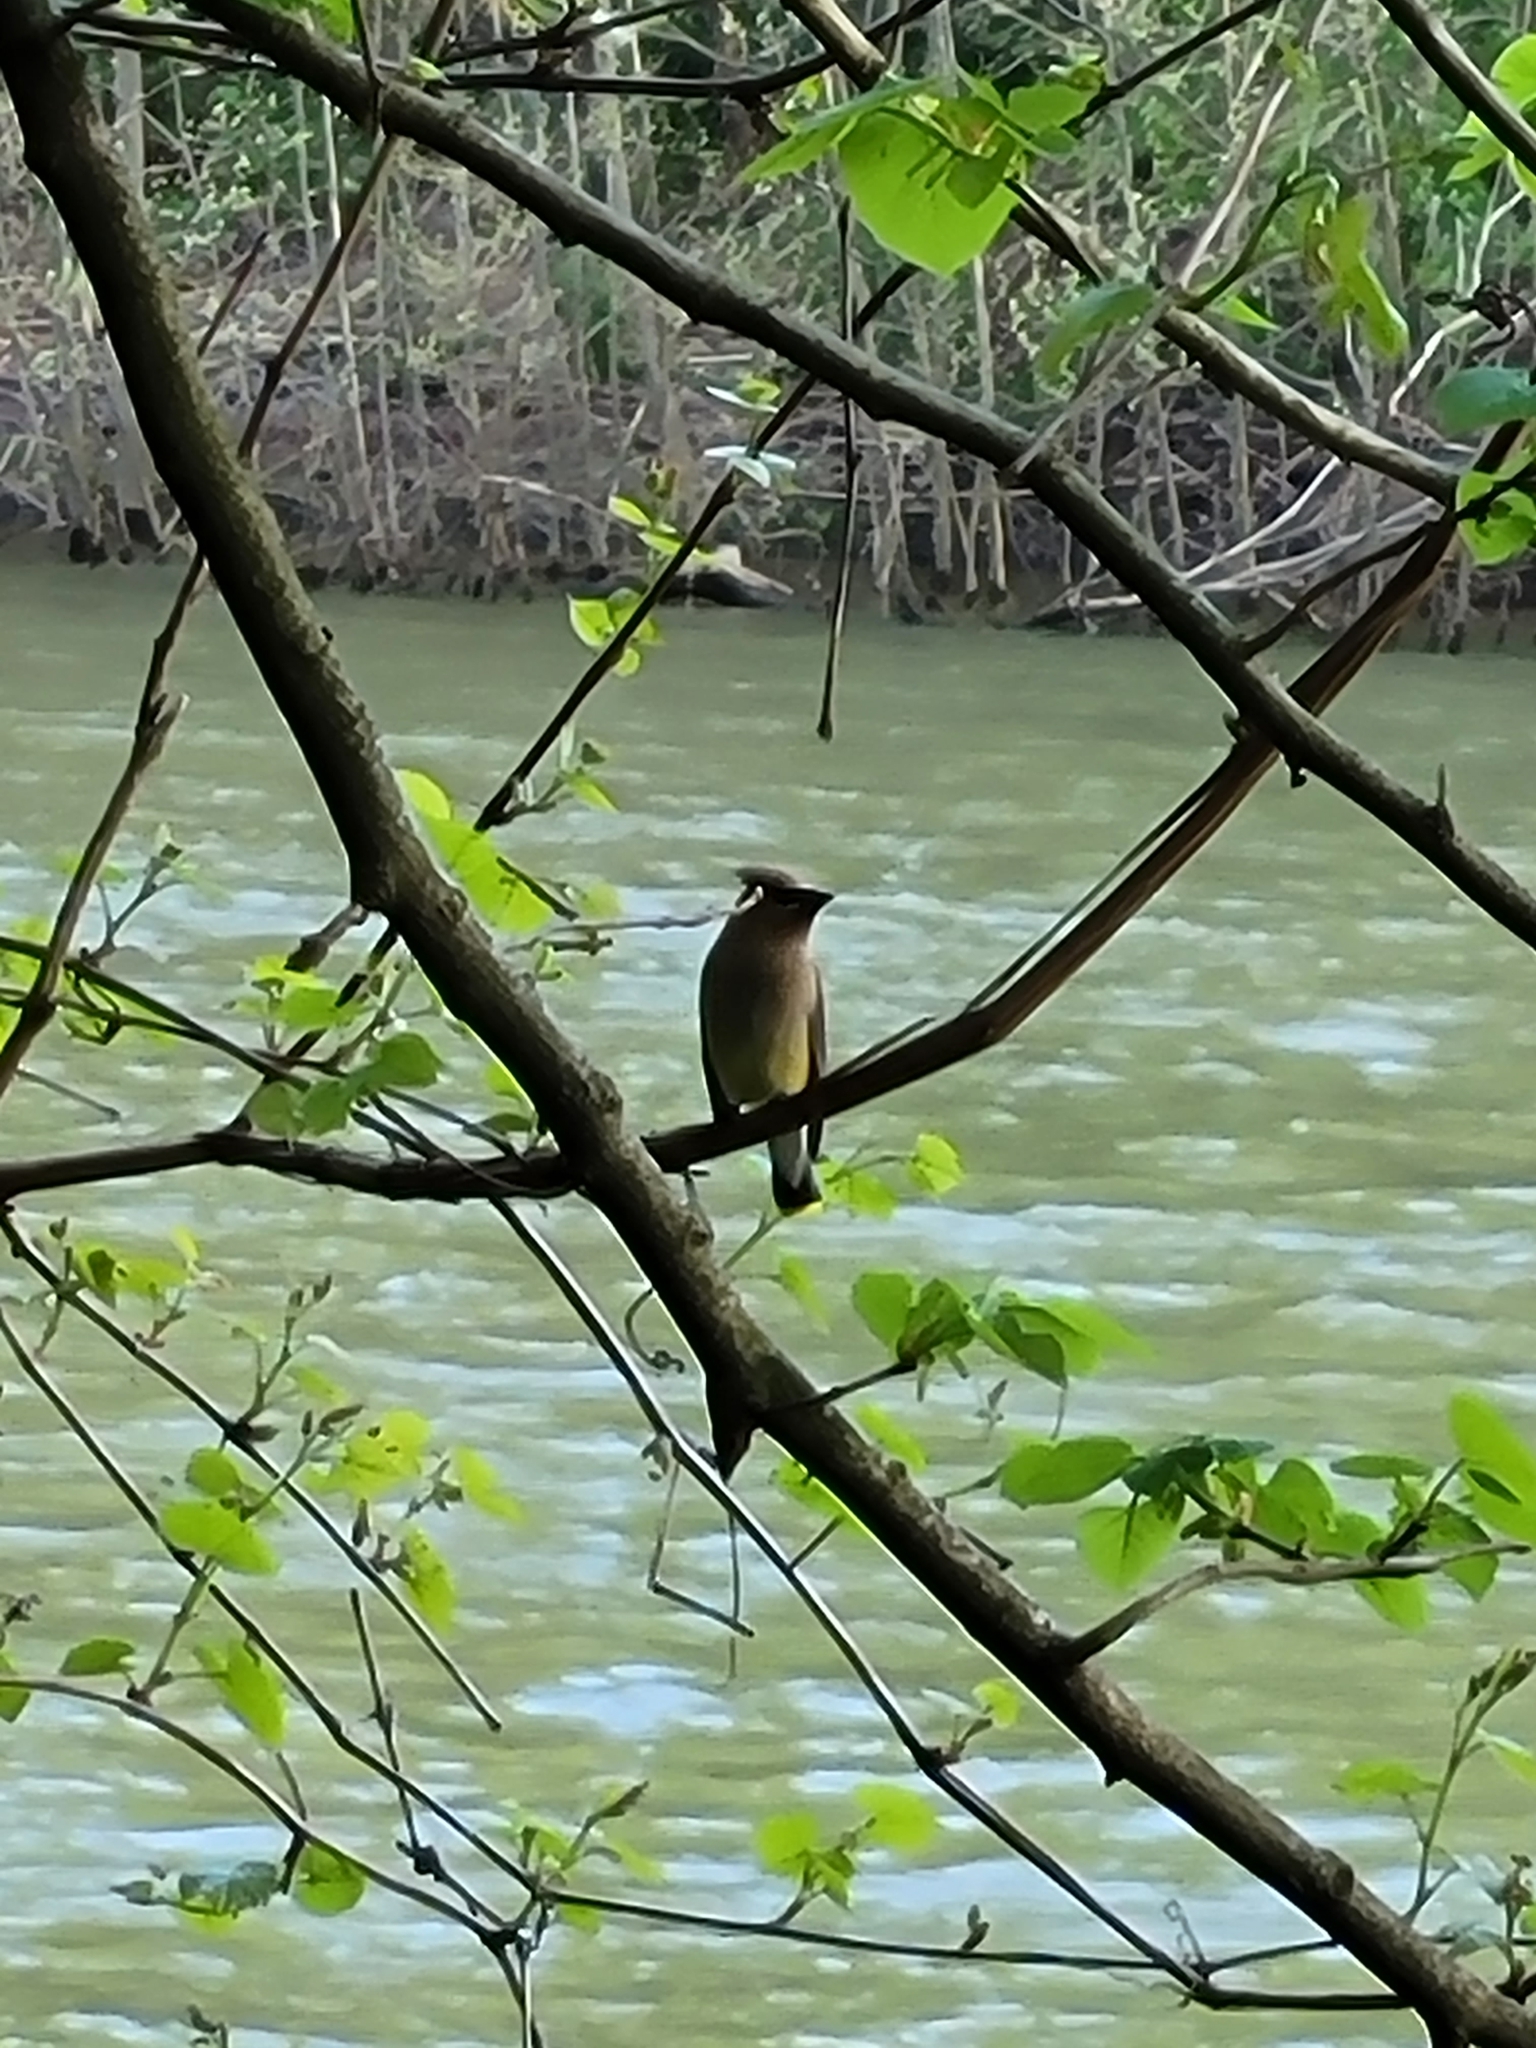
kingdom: Animalia
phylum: Chordata
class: Aves
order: Passeriformes
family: Bombycillidae
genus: Bombycilla
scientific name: Bombycilla cedrorum
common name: Cedar waxwing
